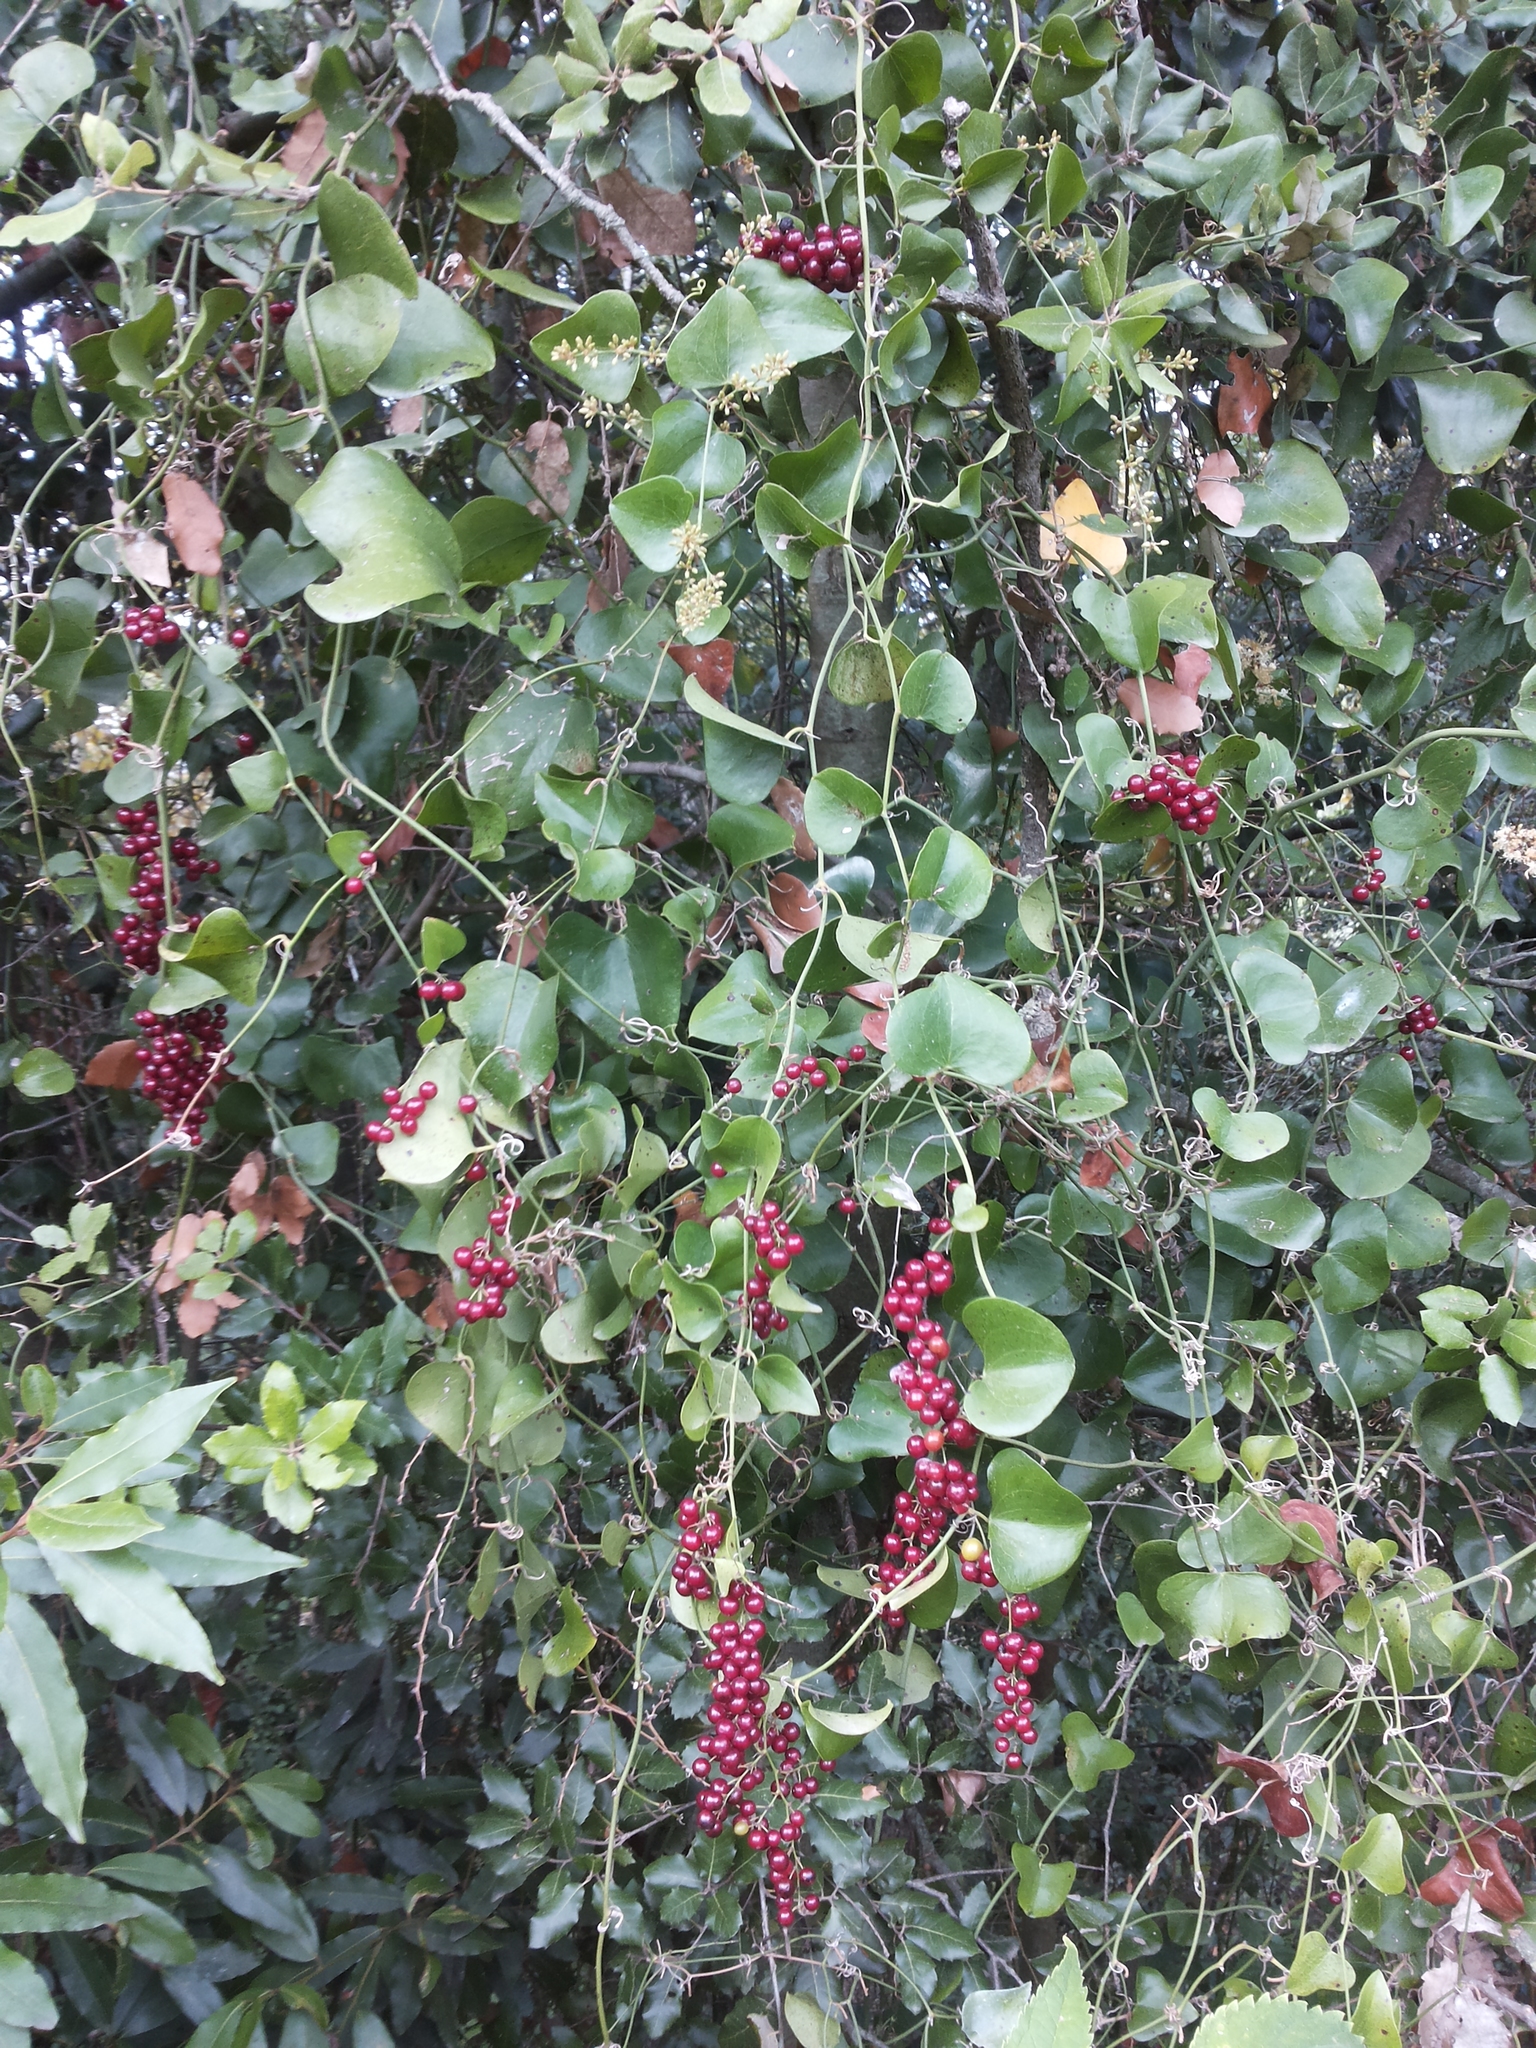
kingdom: Plantae
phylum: Tracheophyta
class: Liliopsida
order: Liliales
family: Smilacaceae
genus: Smilax
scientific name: Smilax aspera
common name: Common smilax
